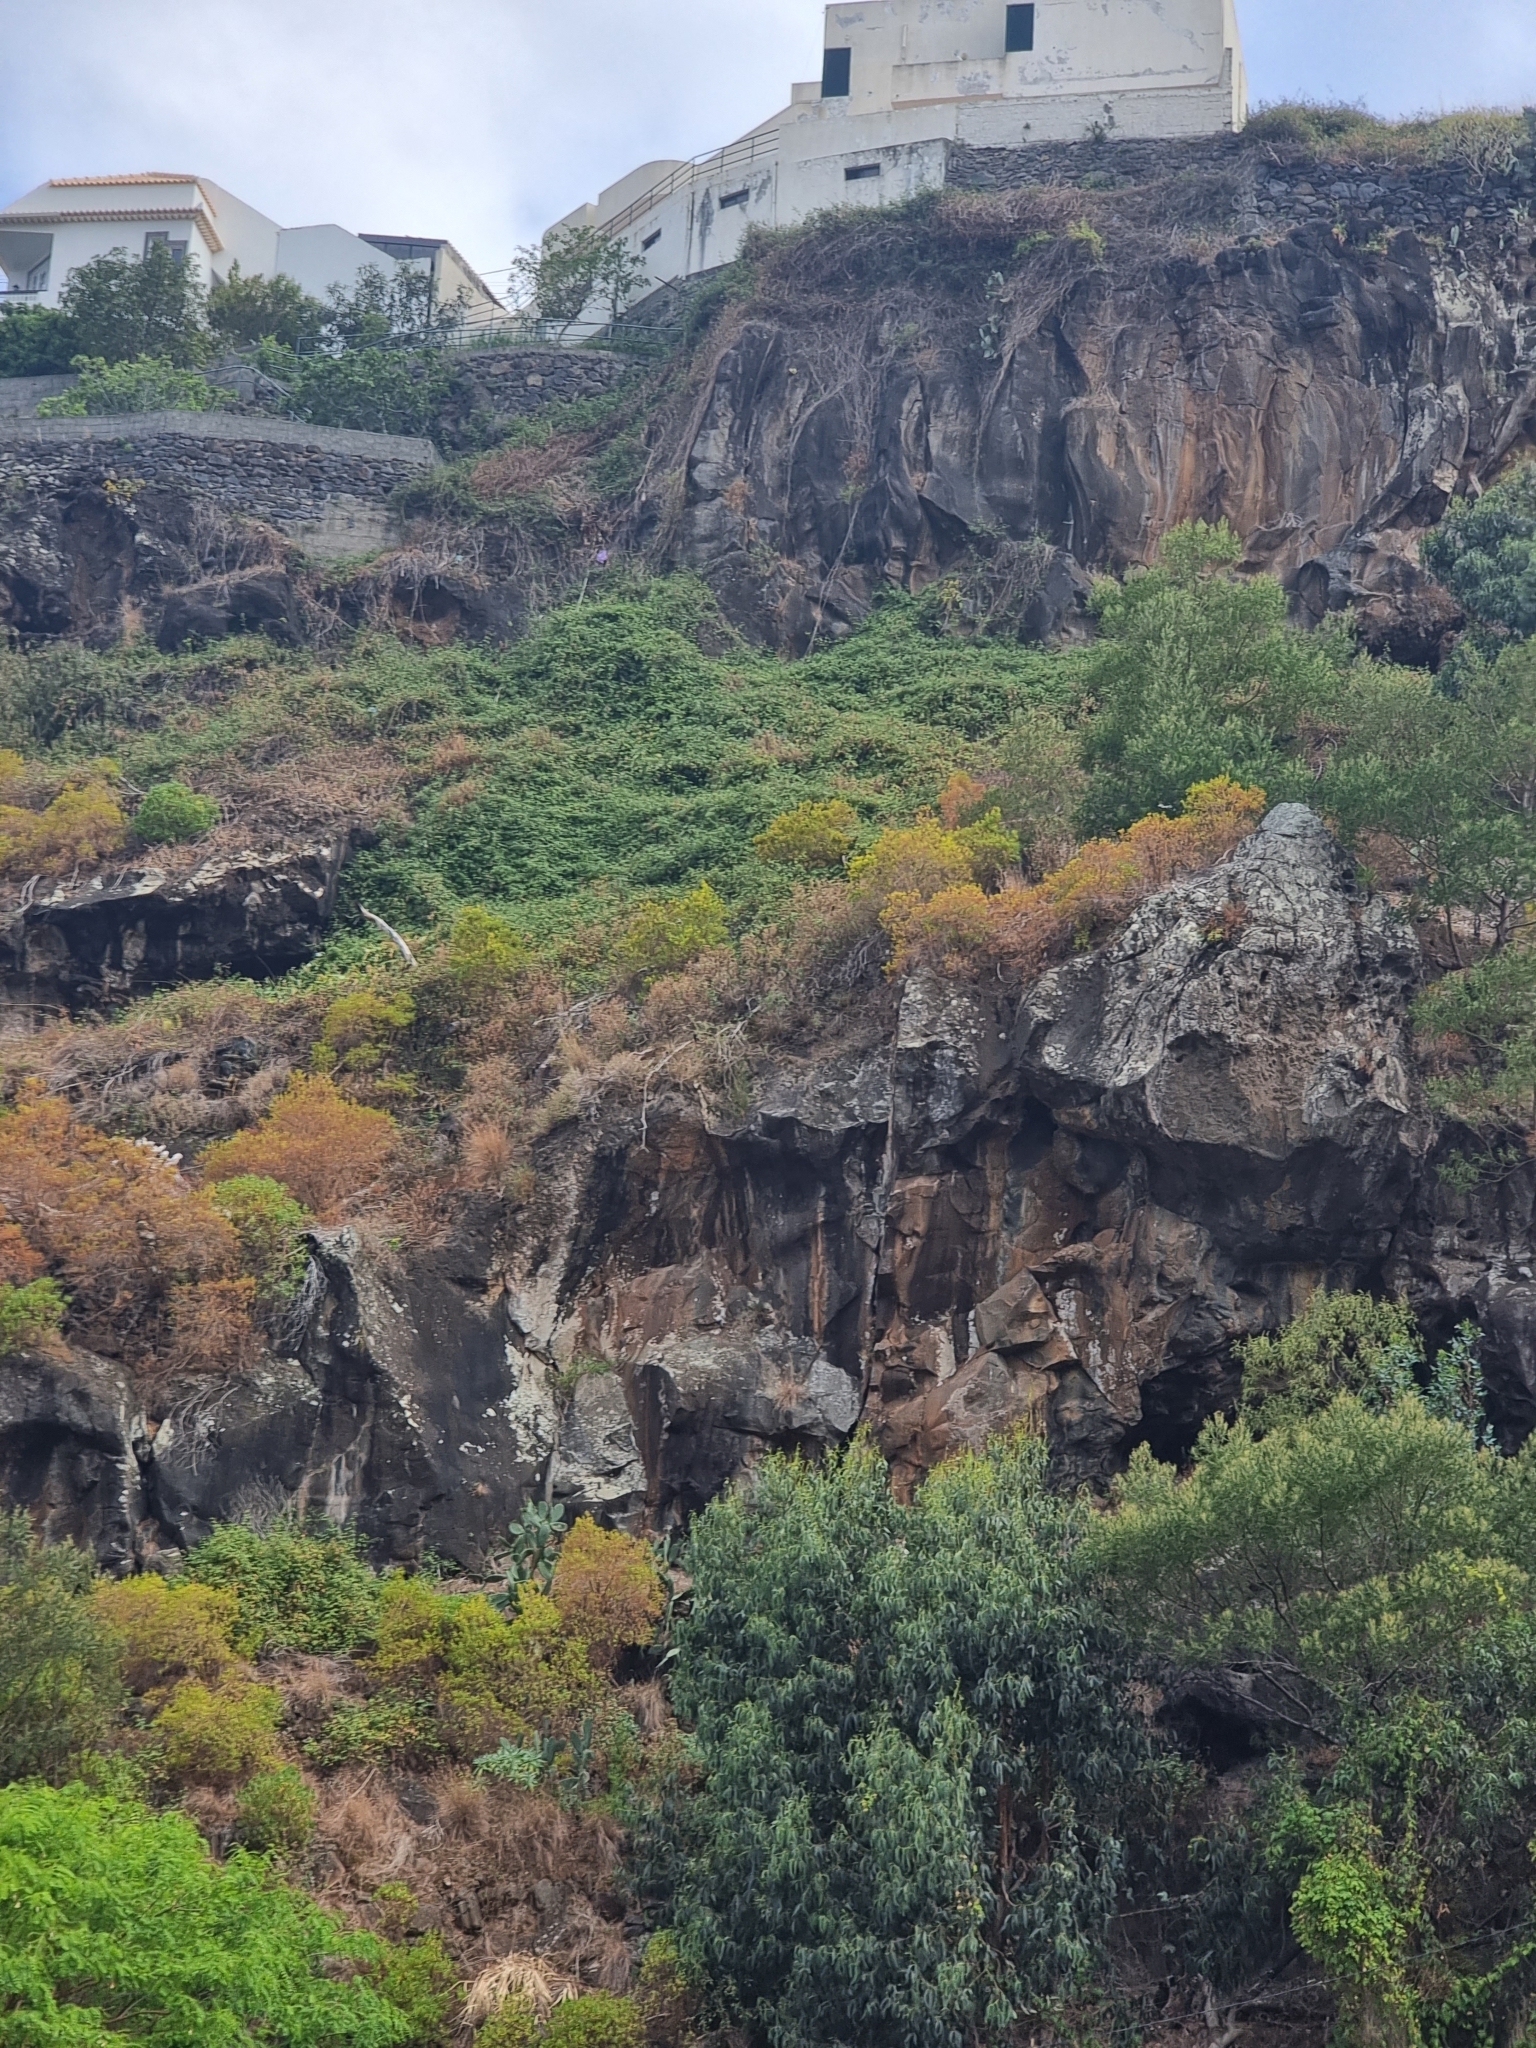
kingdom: Plantae
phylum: Tracheophyta
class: Magnoliopsida
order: Malpighiales
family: Hypericaceae
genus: Hypericum
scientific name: Hypericum canariense
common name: Canary island st. johnswort
